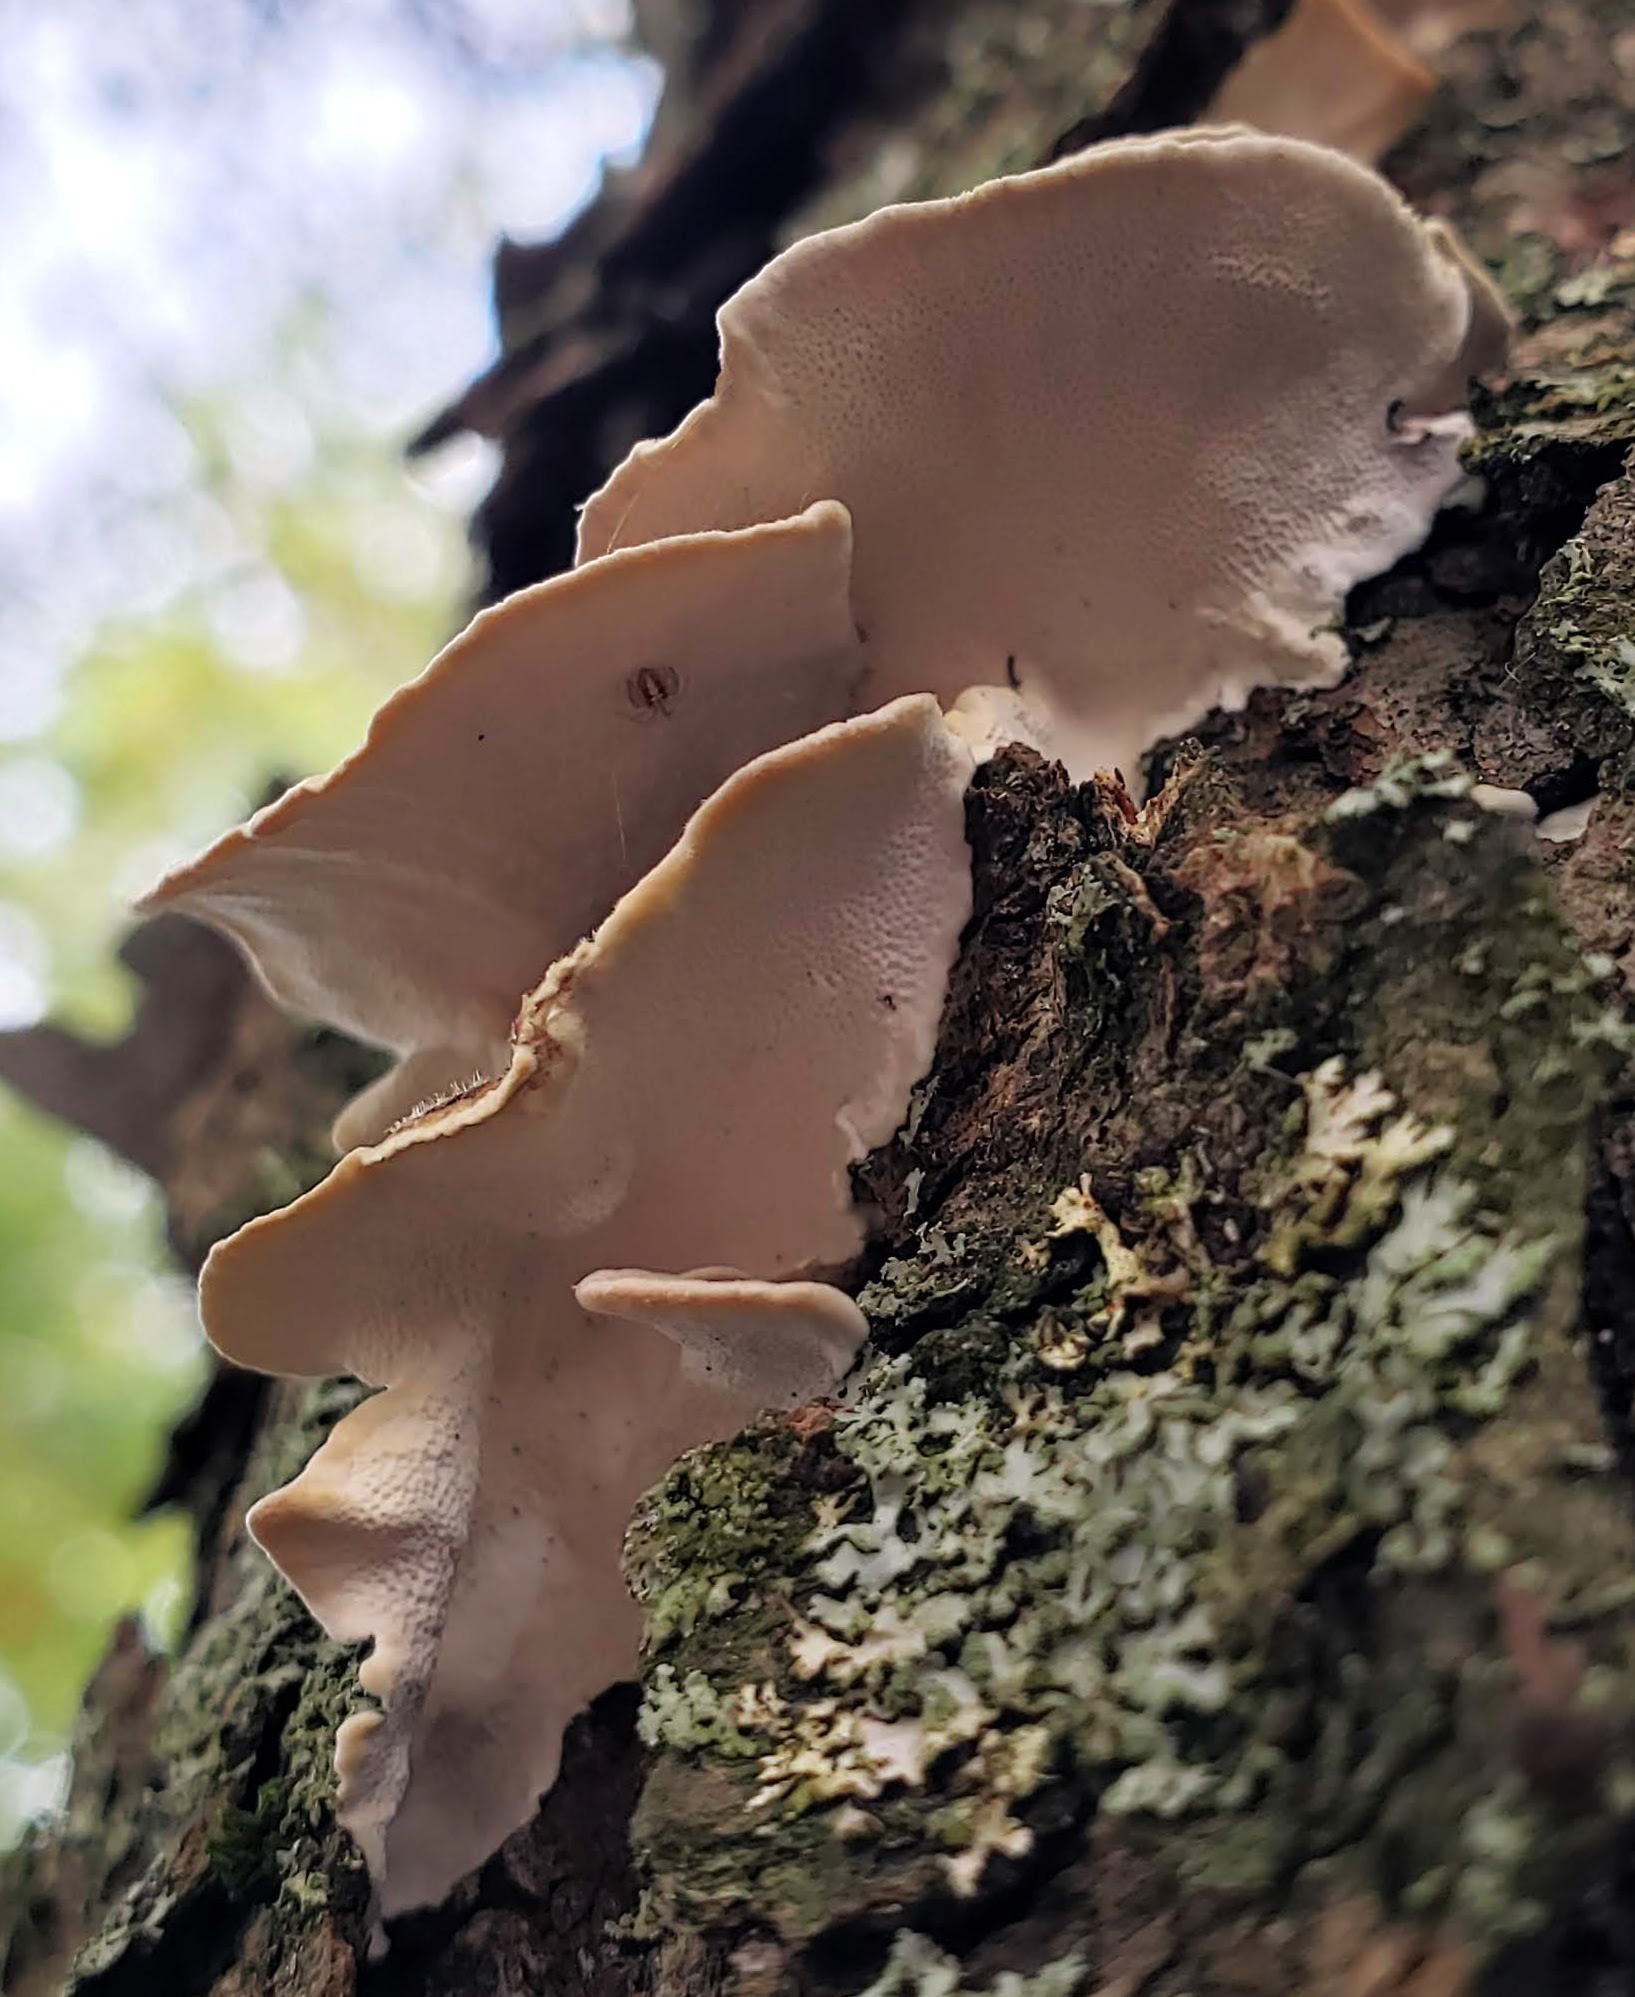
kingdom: Fungi
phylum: Basidiomycota
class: Agaricomycetes
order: Polyporales
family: Polyporaceae
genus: Trametes
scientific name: Trametes versicolor
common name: Turkeytail
